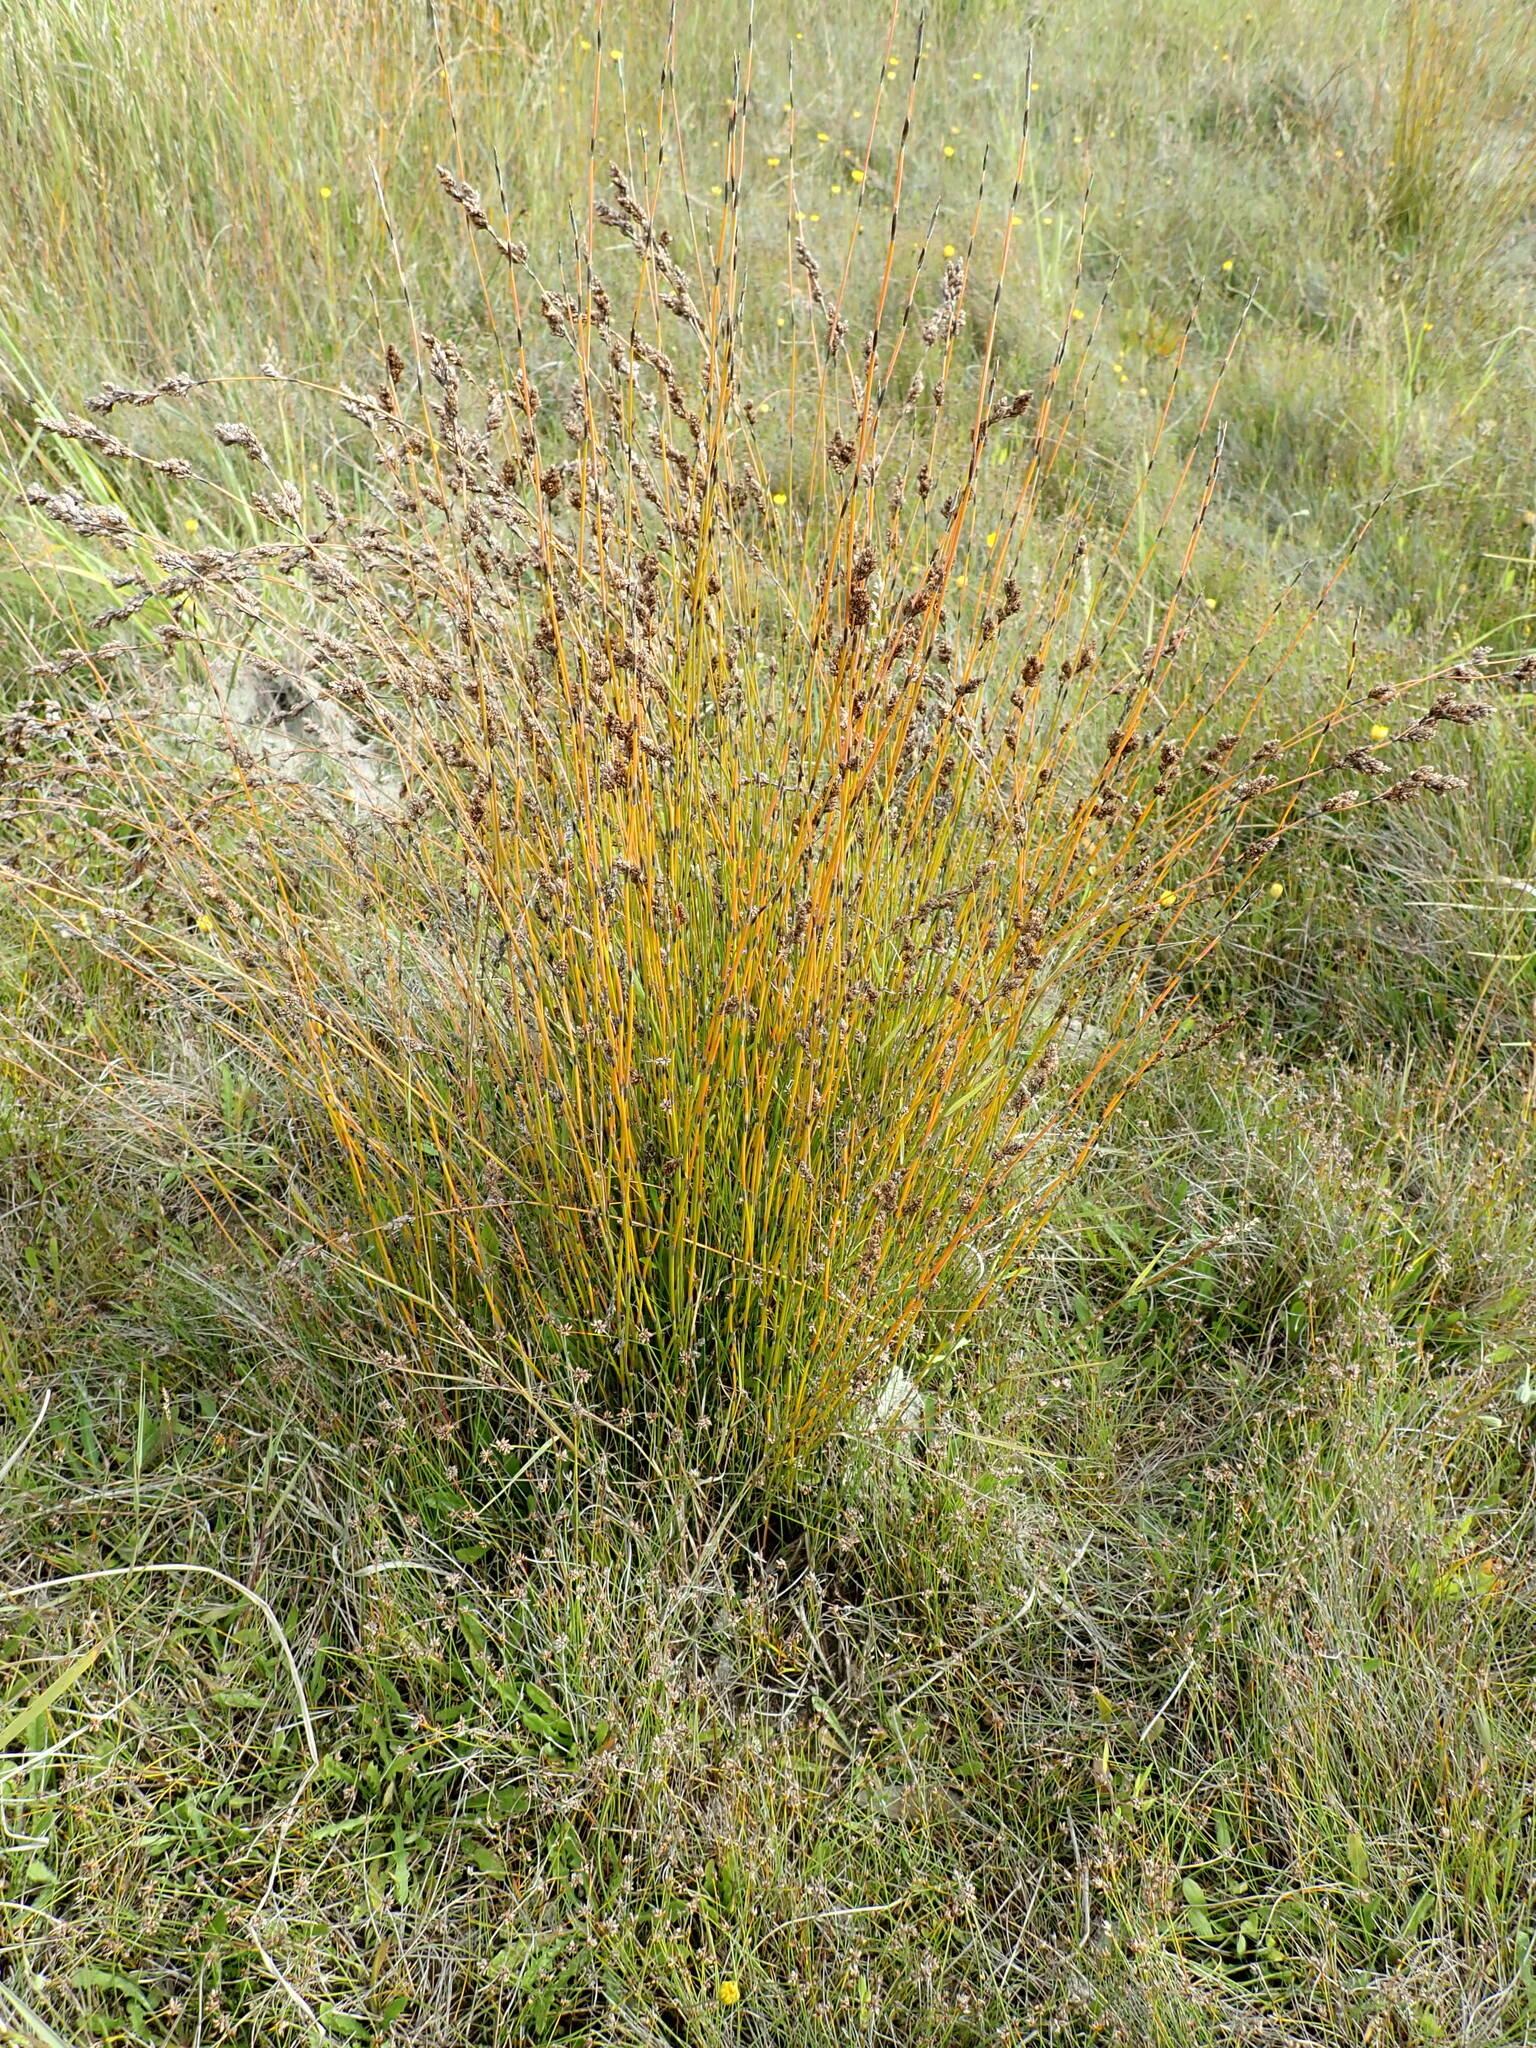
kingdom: Plantae
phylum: Tracheophyta
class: Liliopsida
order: Poales
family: Restionaceae
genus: Apodasmia
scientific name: Apodasmia similis
